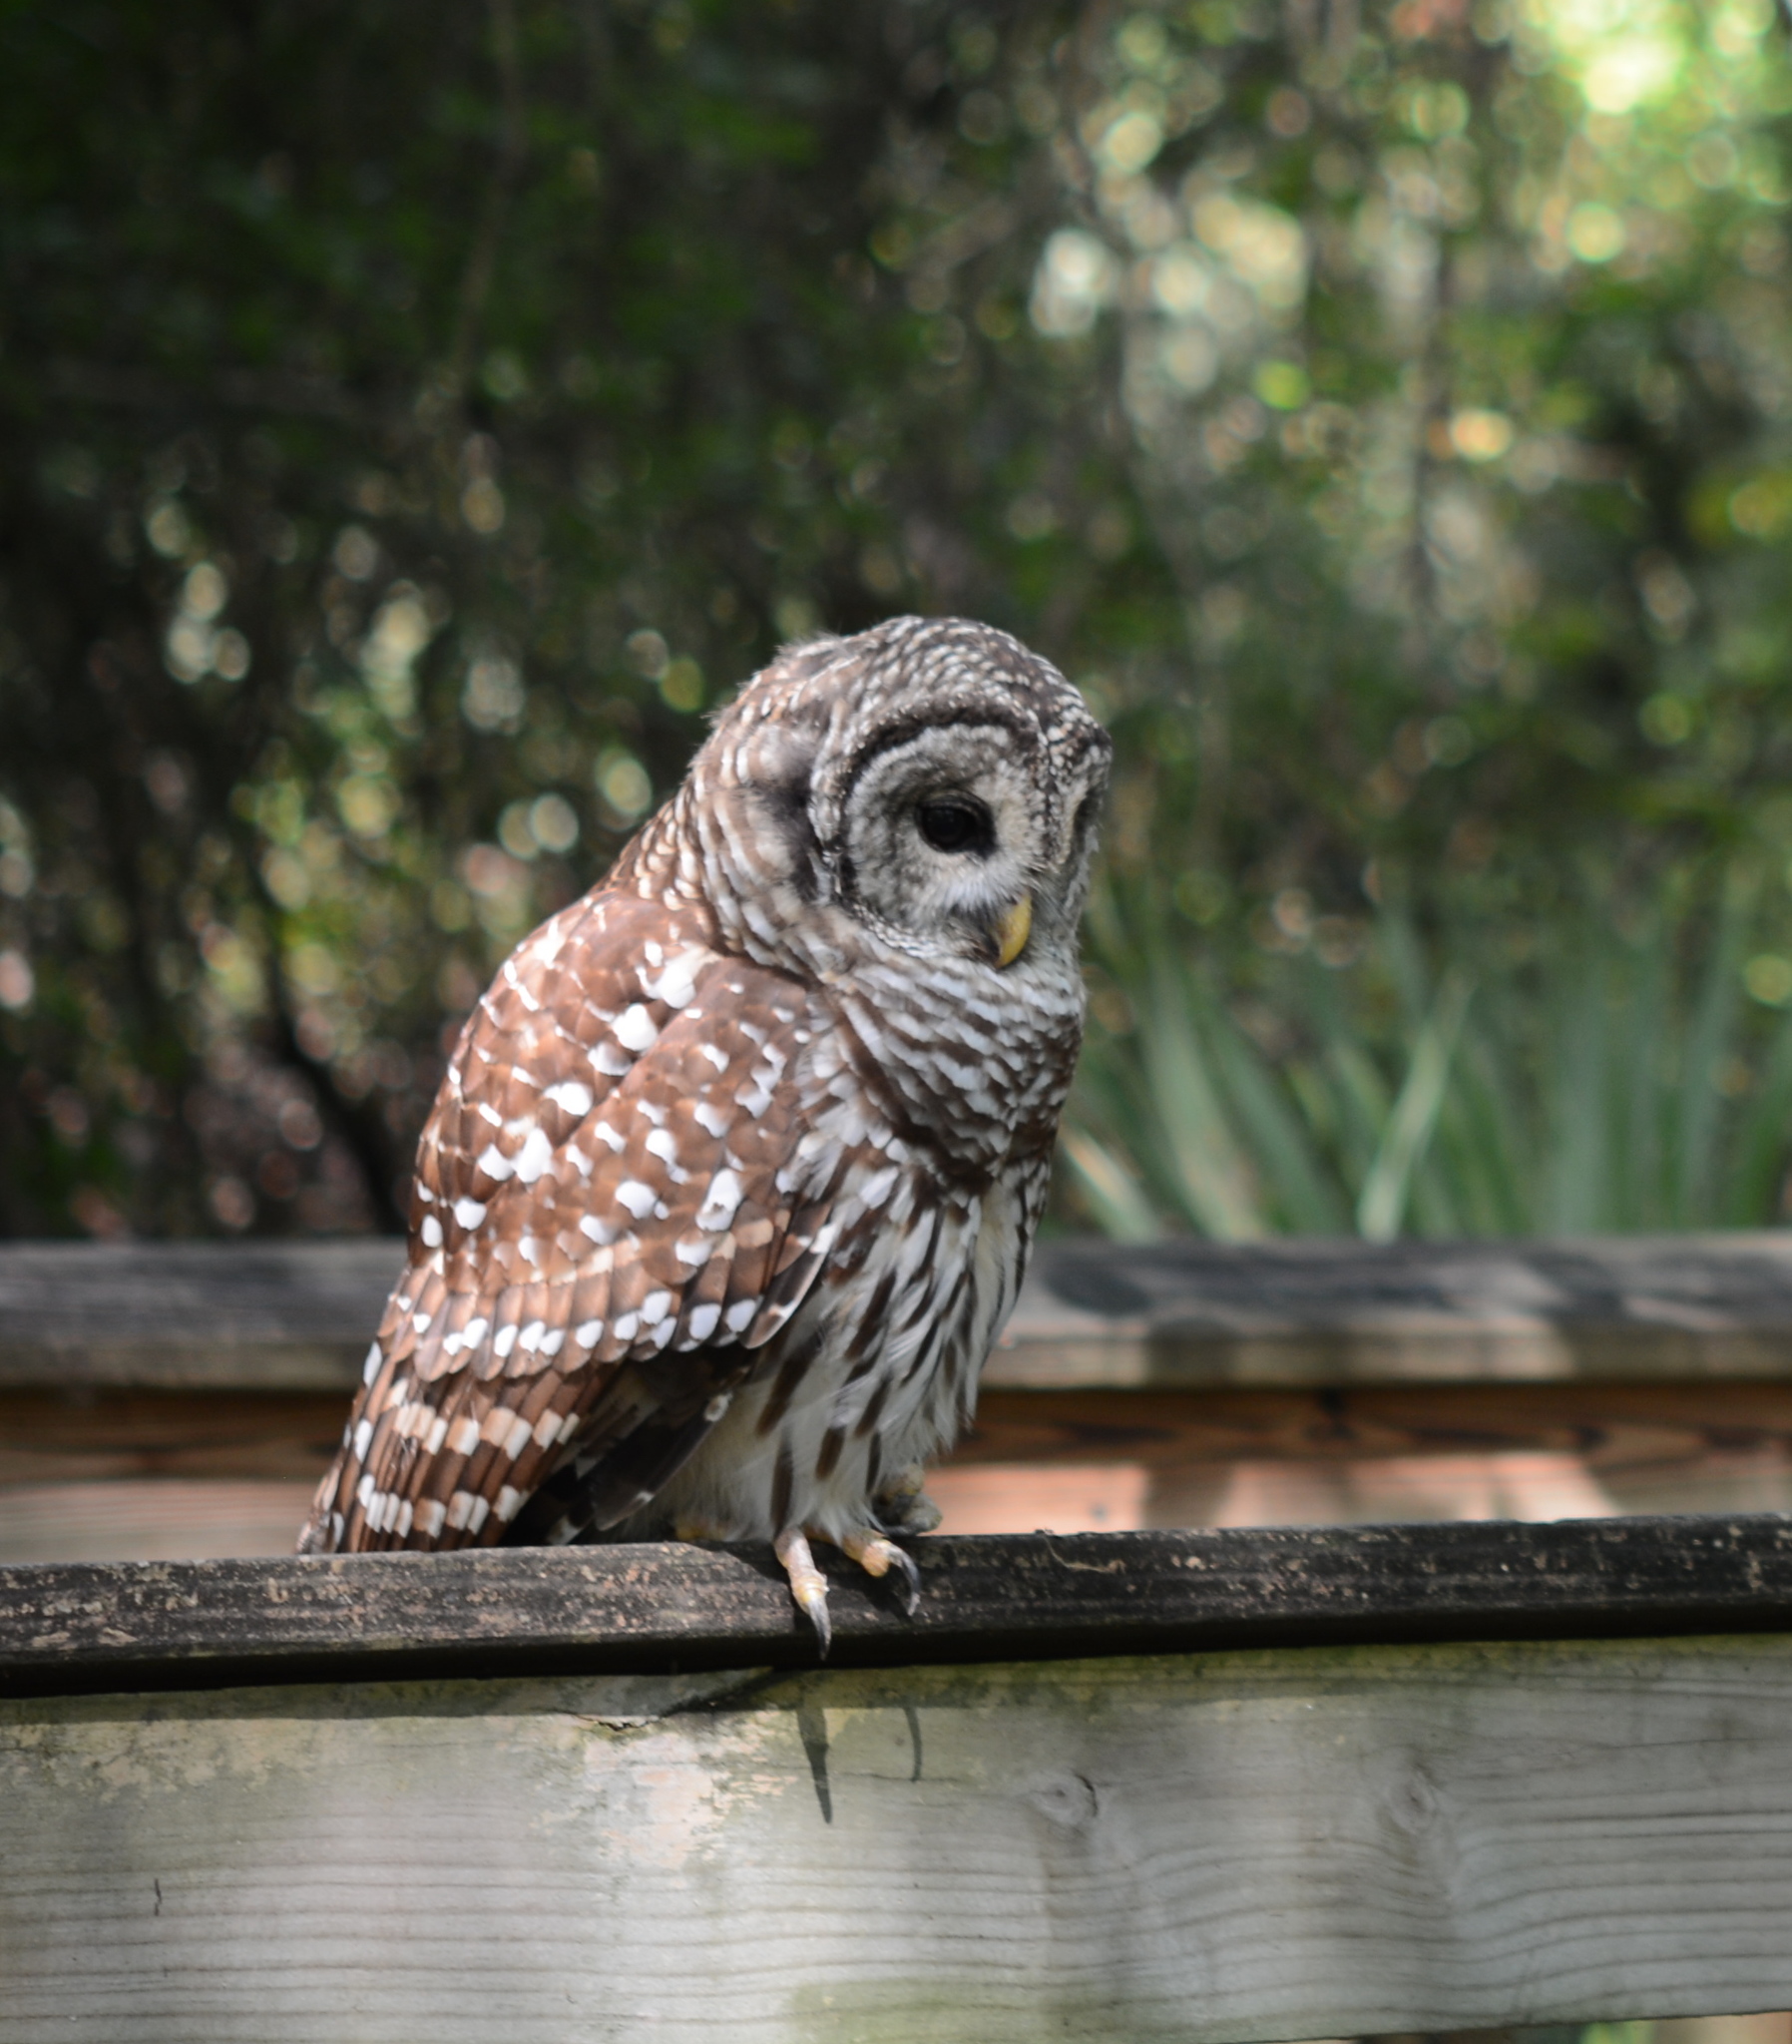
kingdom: Animalia
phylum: Chordata
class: Aves
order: Strigiformes
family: Strigidae
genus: Strix
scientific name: Strix varia
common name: Barred owl
